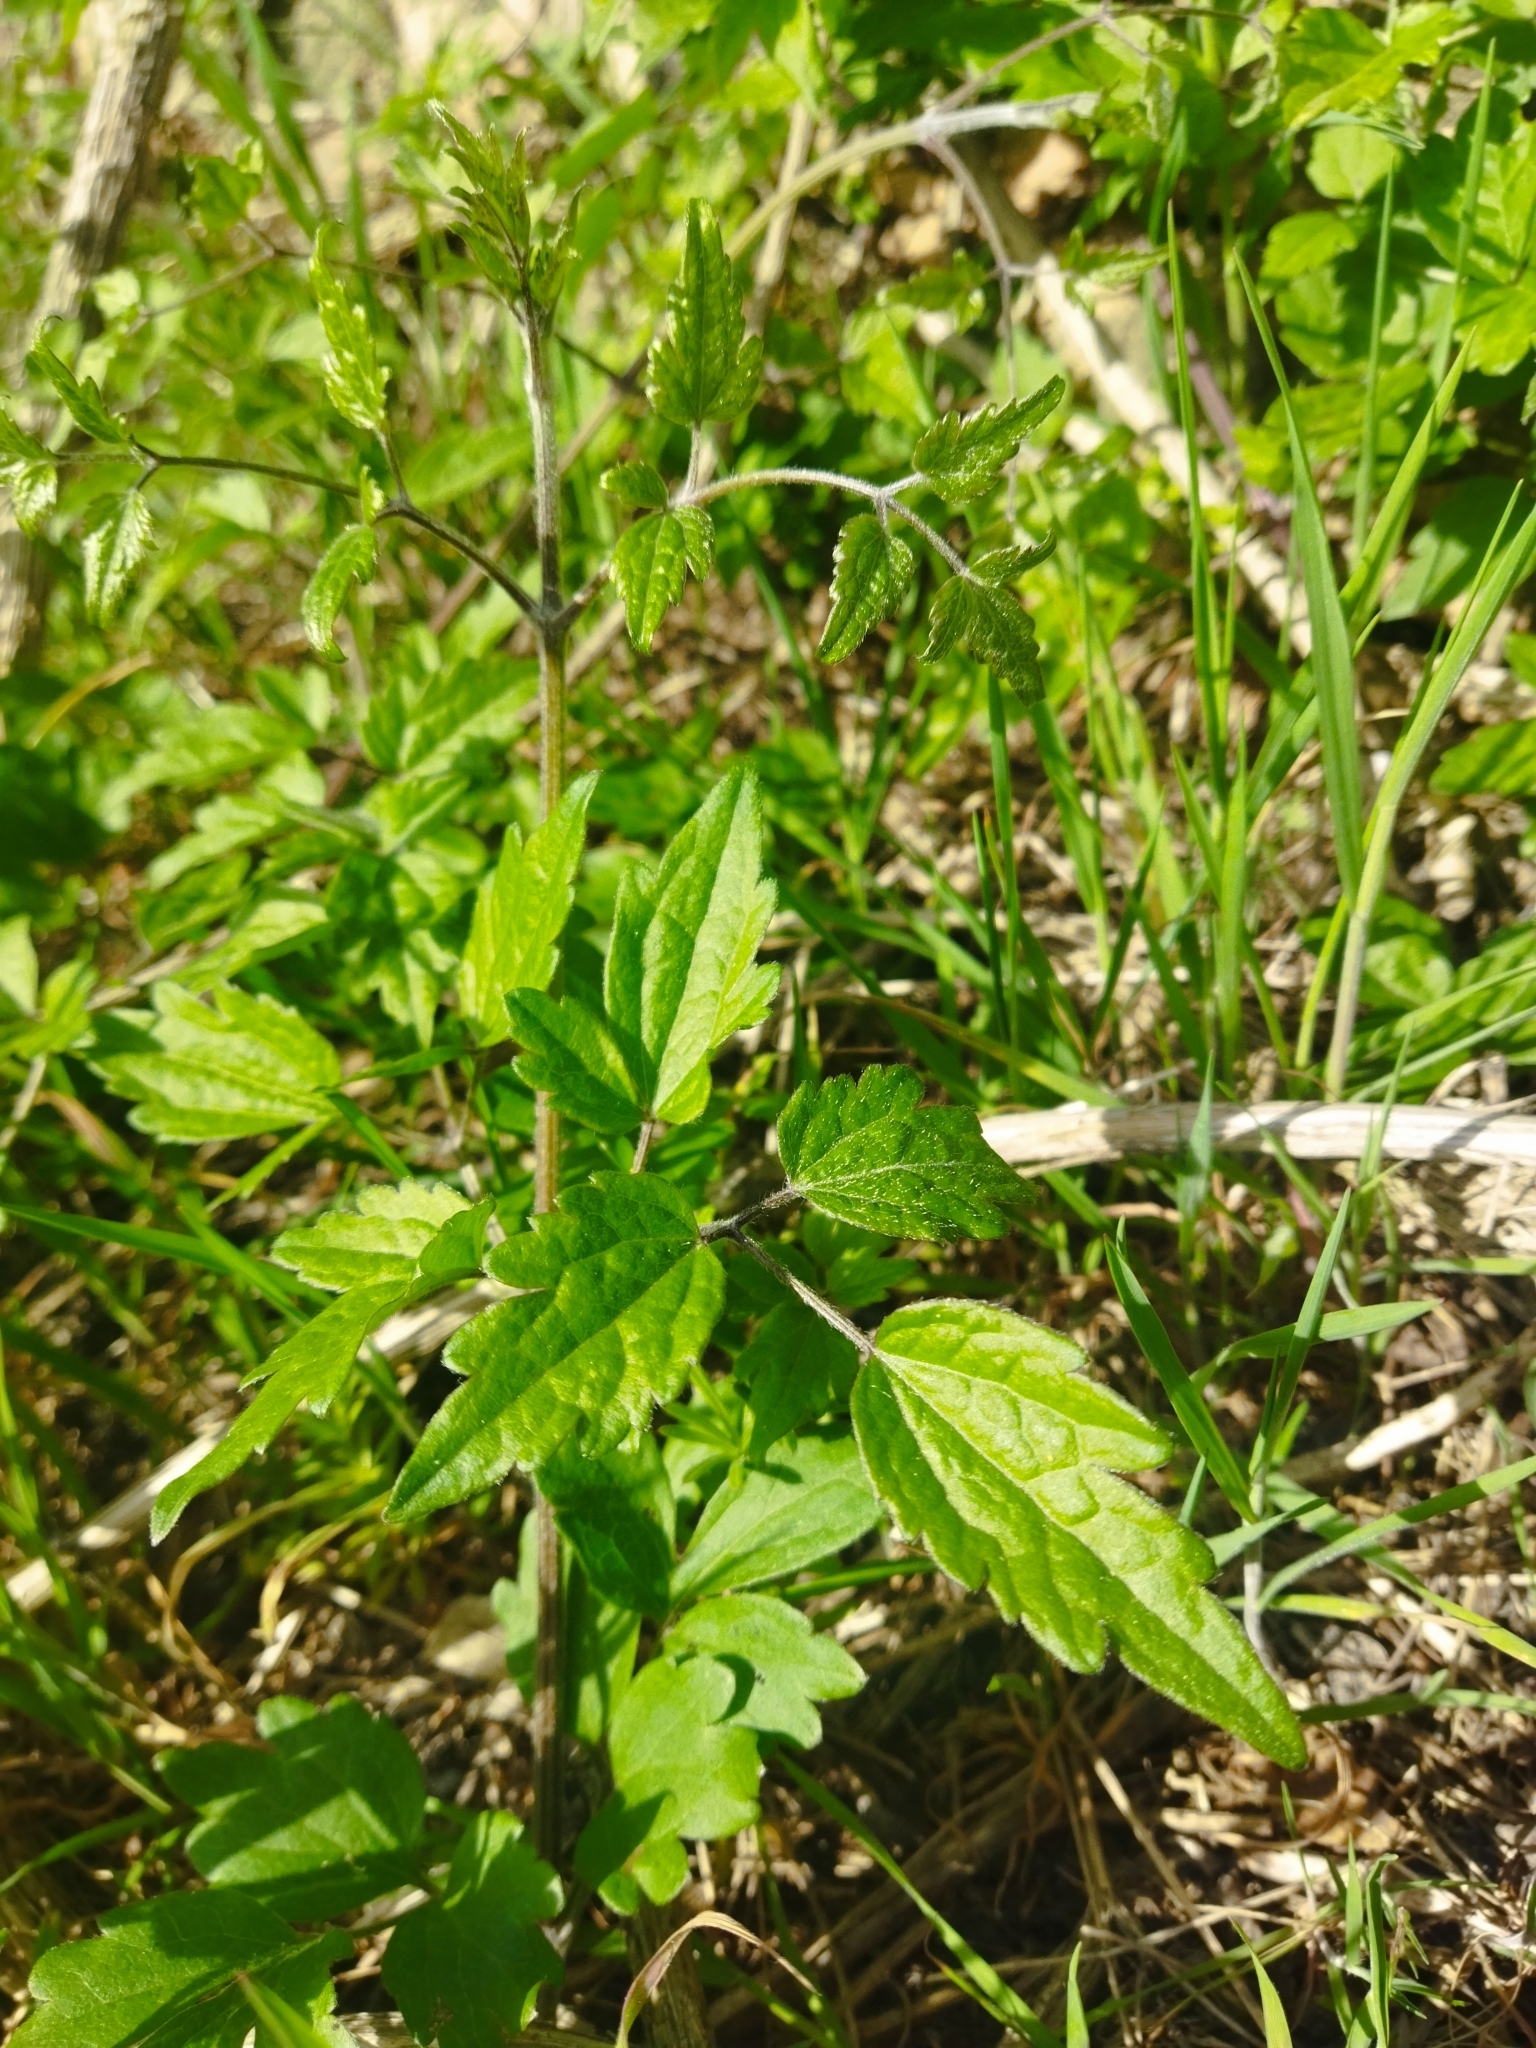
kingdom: Plantae
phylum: Tracheophyta
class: Magnoliopsida
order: Ranunculales
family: Ranunculaceae
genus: Clematis
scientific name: Clematis vitalba
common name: Evergreen clematis
